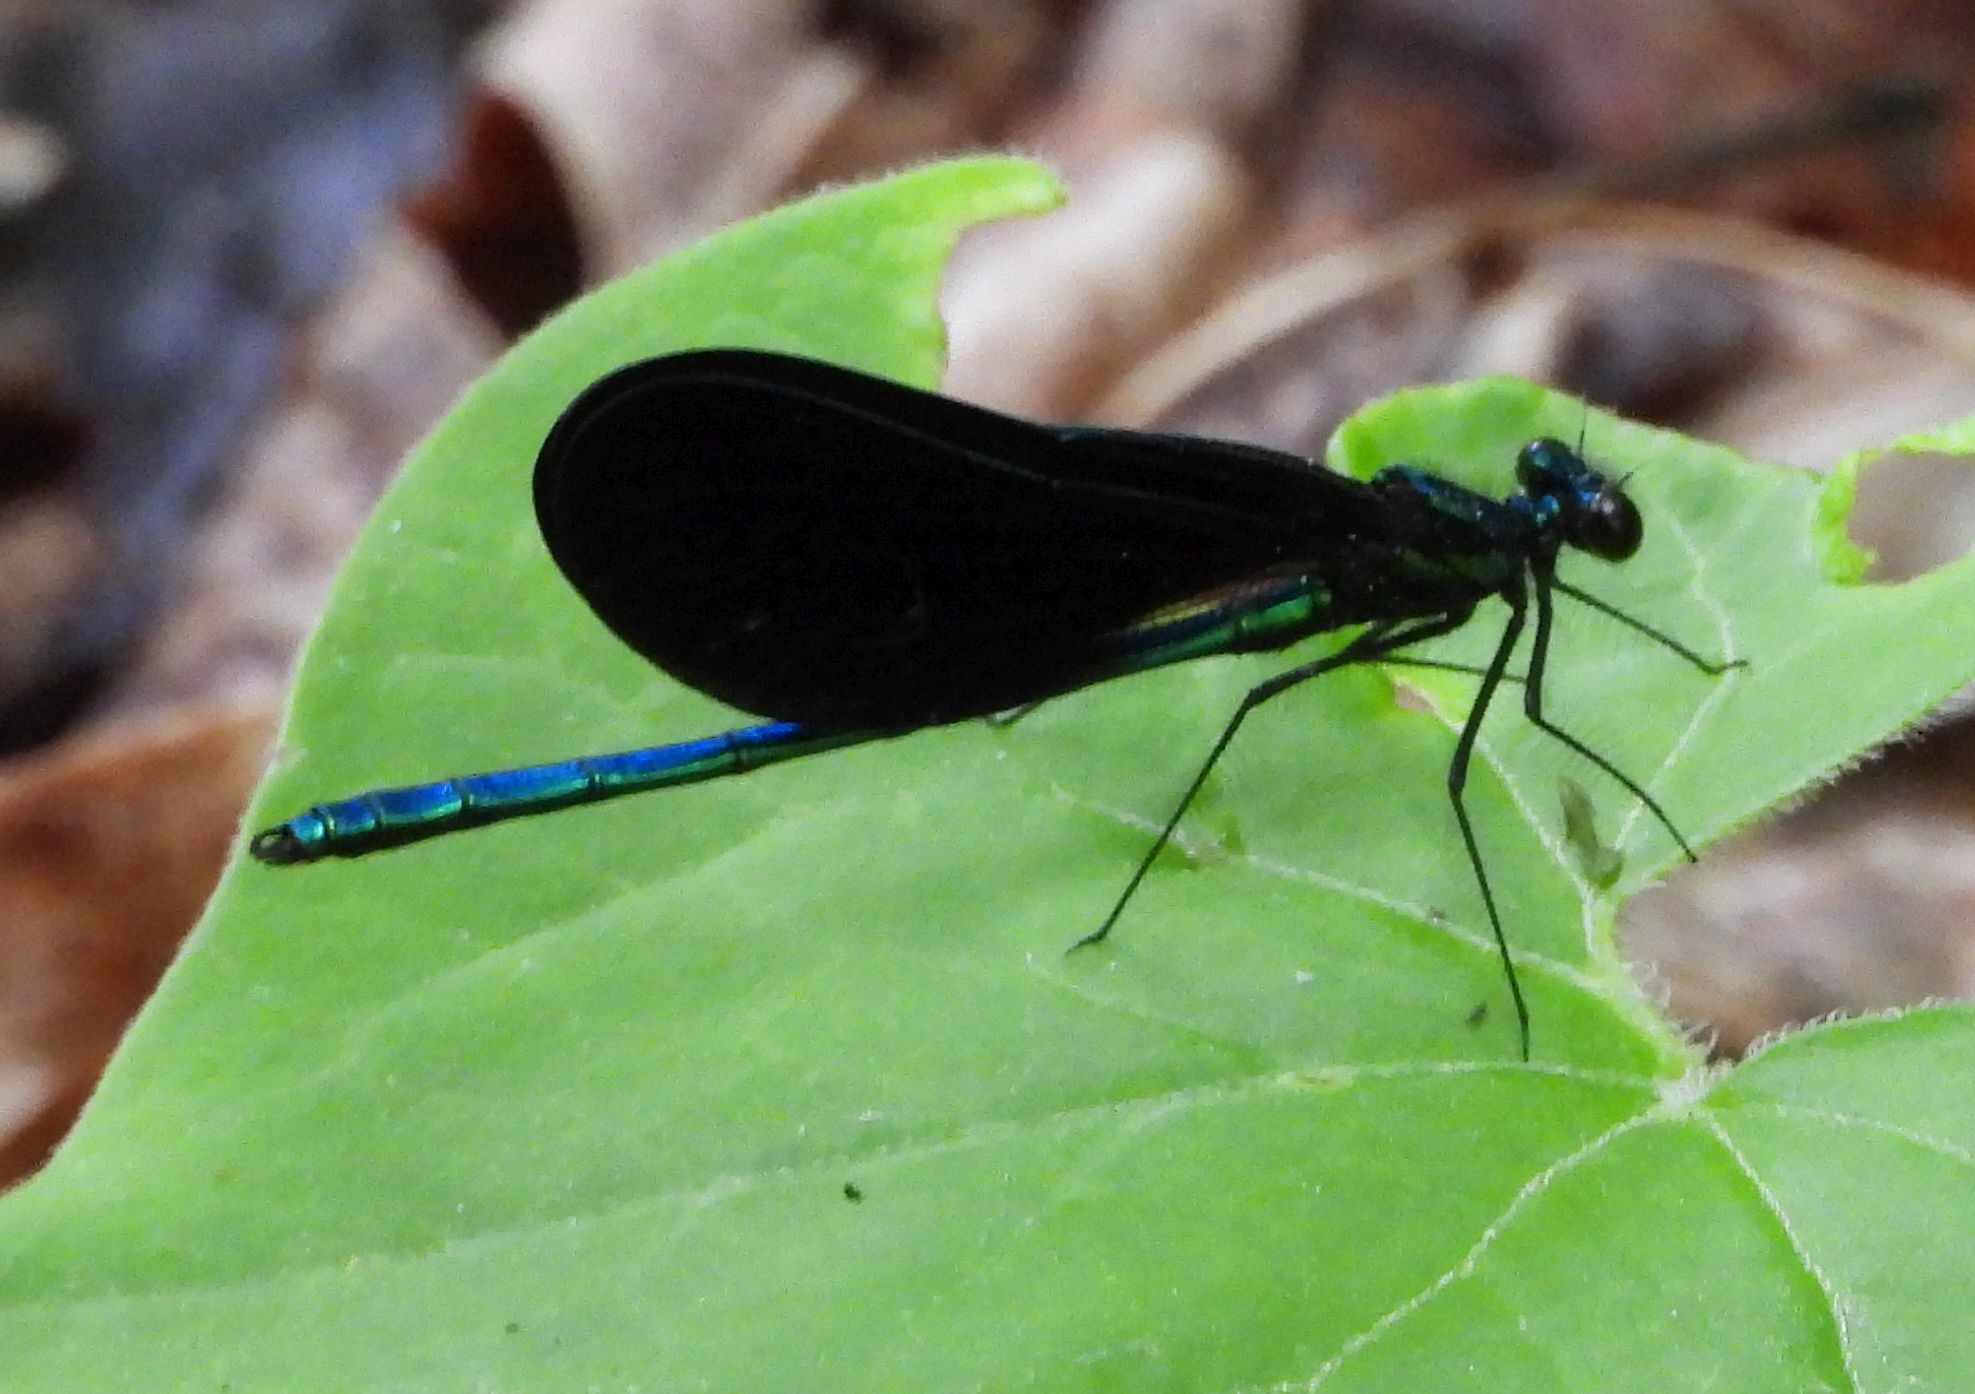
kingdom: Animalia
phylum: Arthropoda
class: Insecta
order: Odonata
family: Calopterygidae
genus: Calopteryx
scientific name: Calopteryx maculata
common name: Ebony jewelwing
